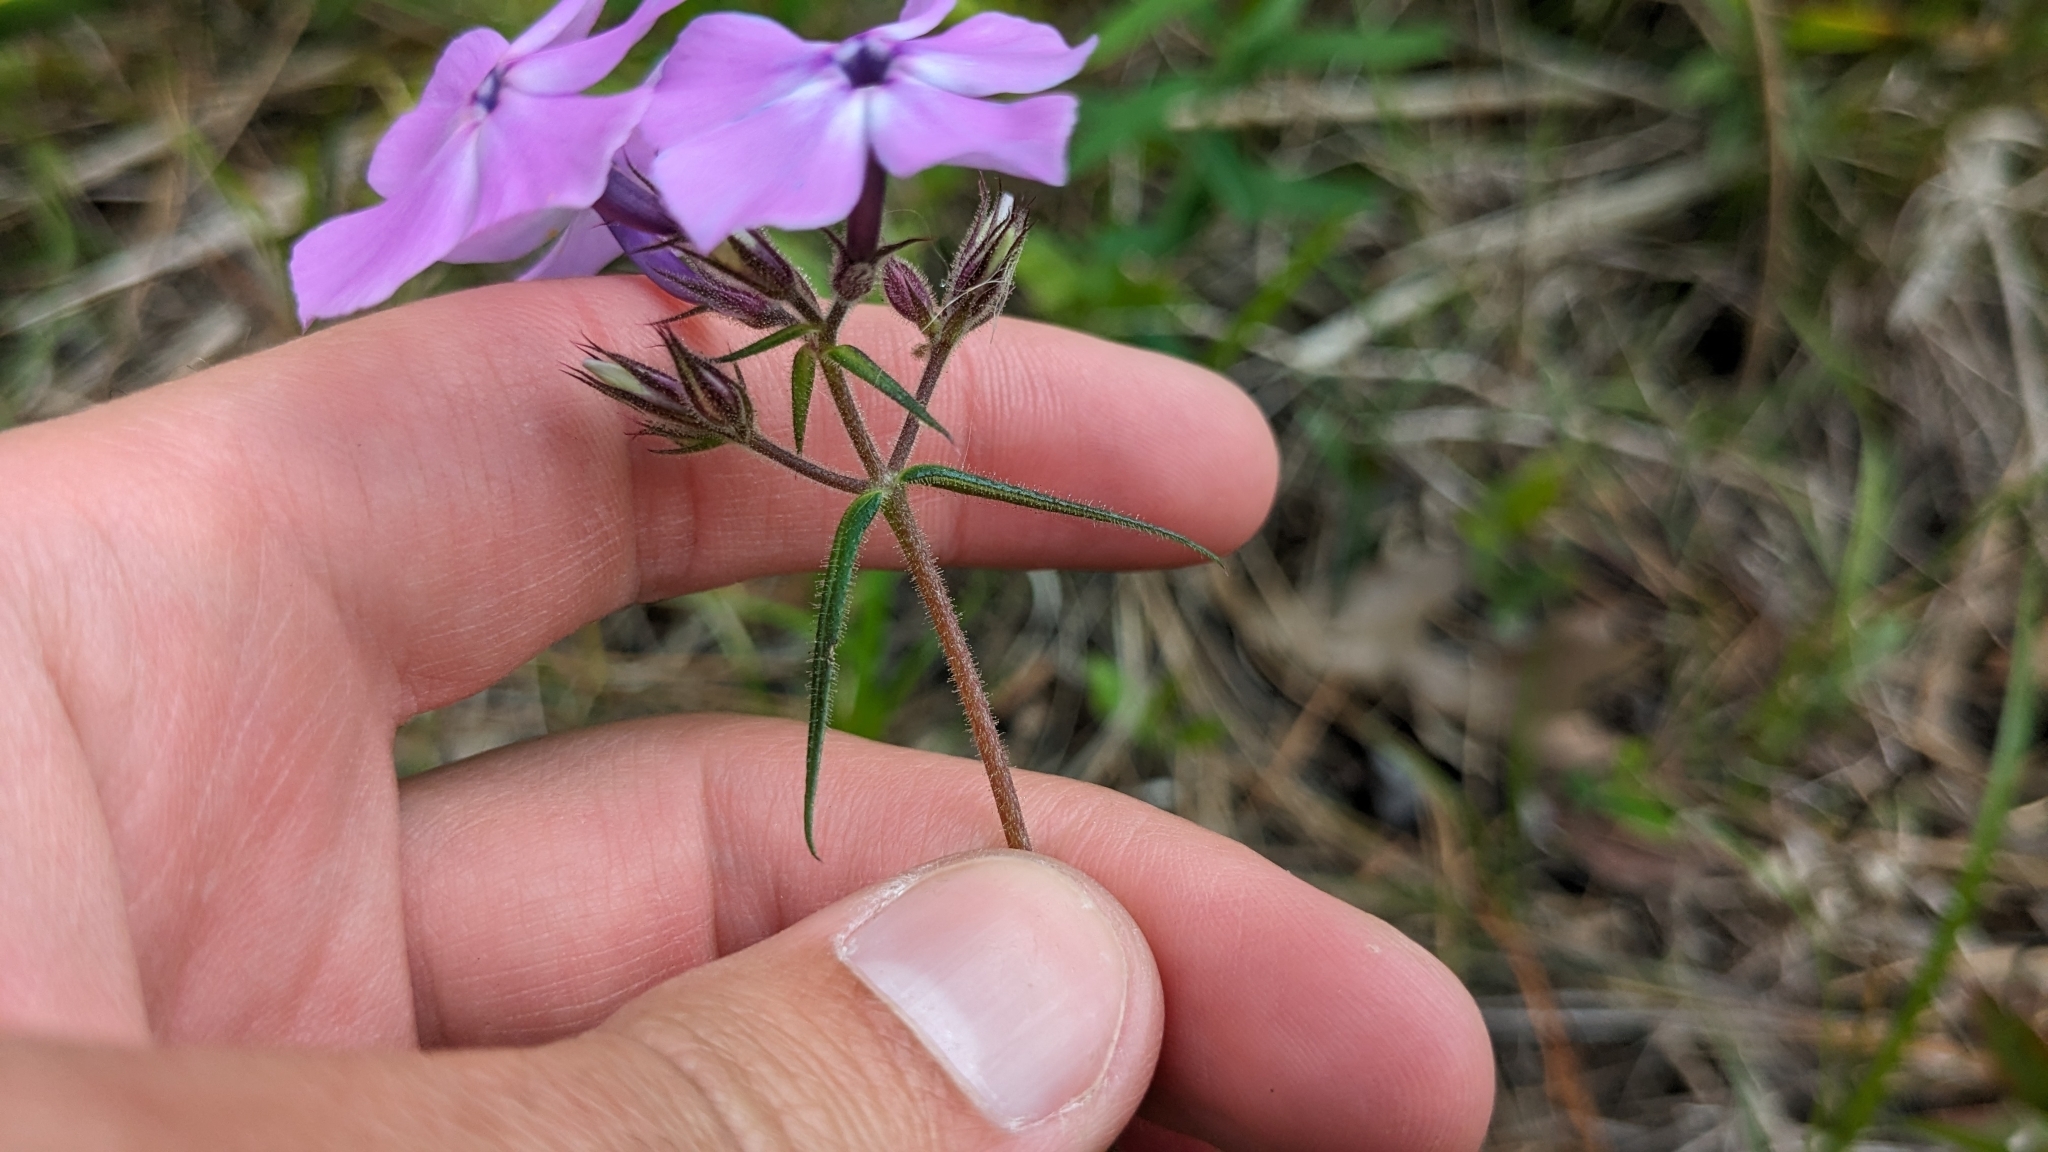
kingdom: Plantae
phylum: Tracheophyta
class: Magnoliopsida
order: Ericales
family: Polemoniaceae
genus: Phlox
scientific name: Phlox pilosa
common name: Prairie phlox
